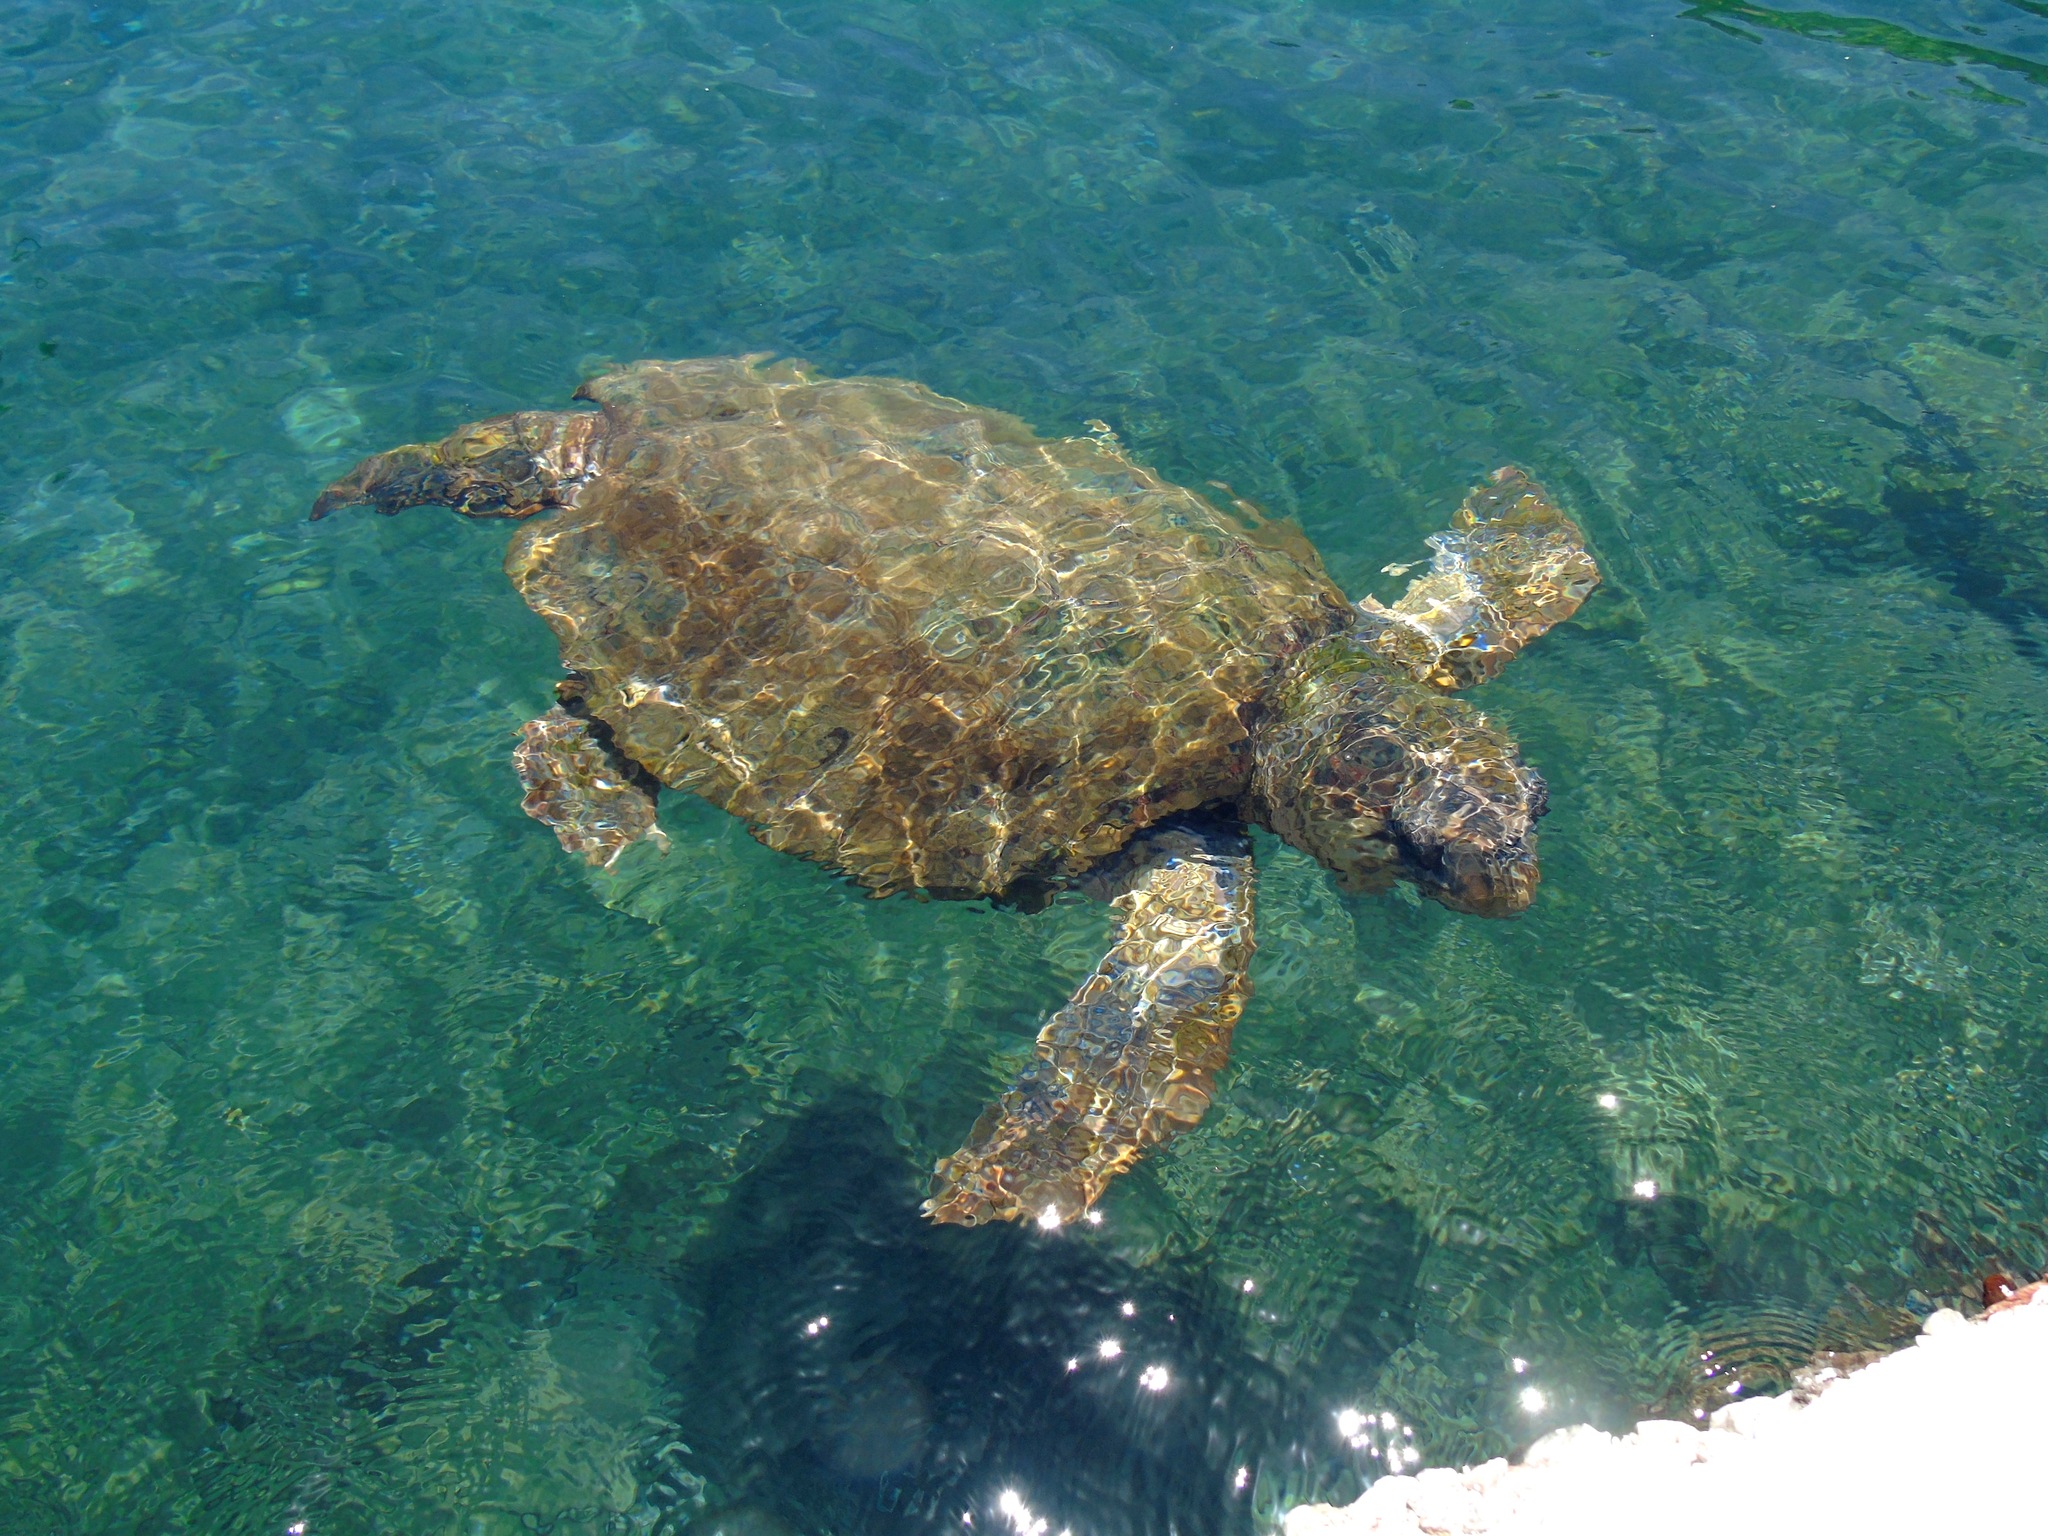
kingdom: Animalia
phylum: Chordata
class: Testudines
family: Cheloniidae
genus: Caretta
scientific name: Caretta caretta
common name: Loggerhead sea turtle
